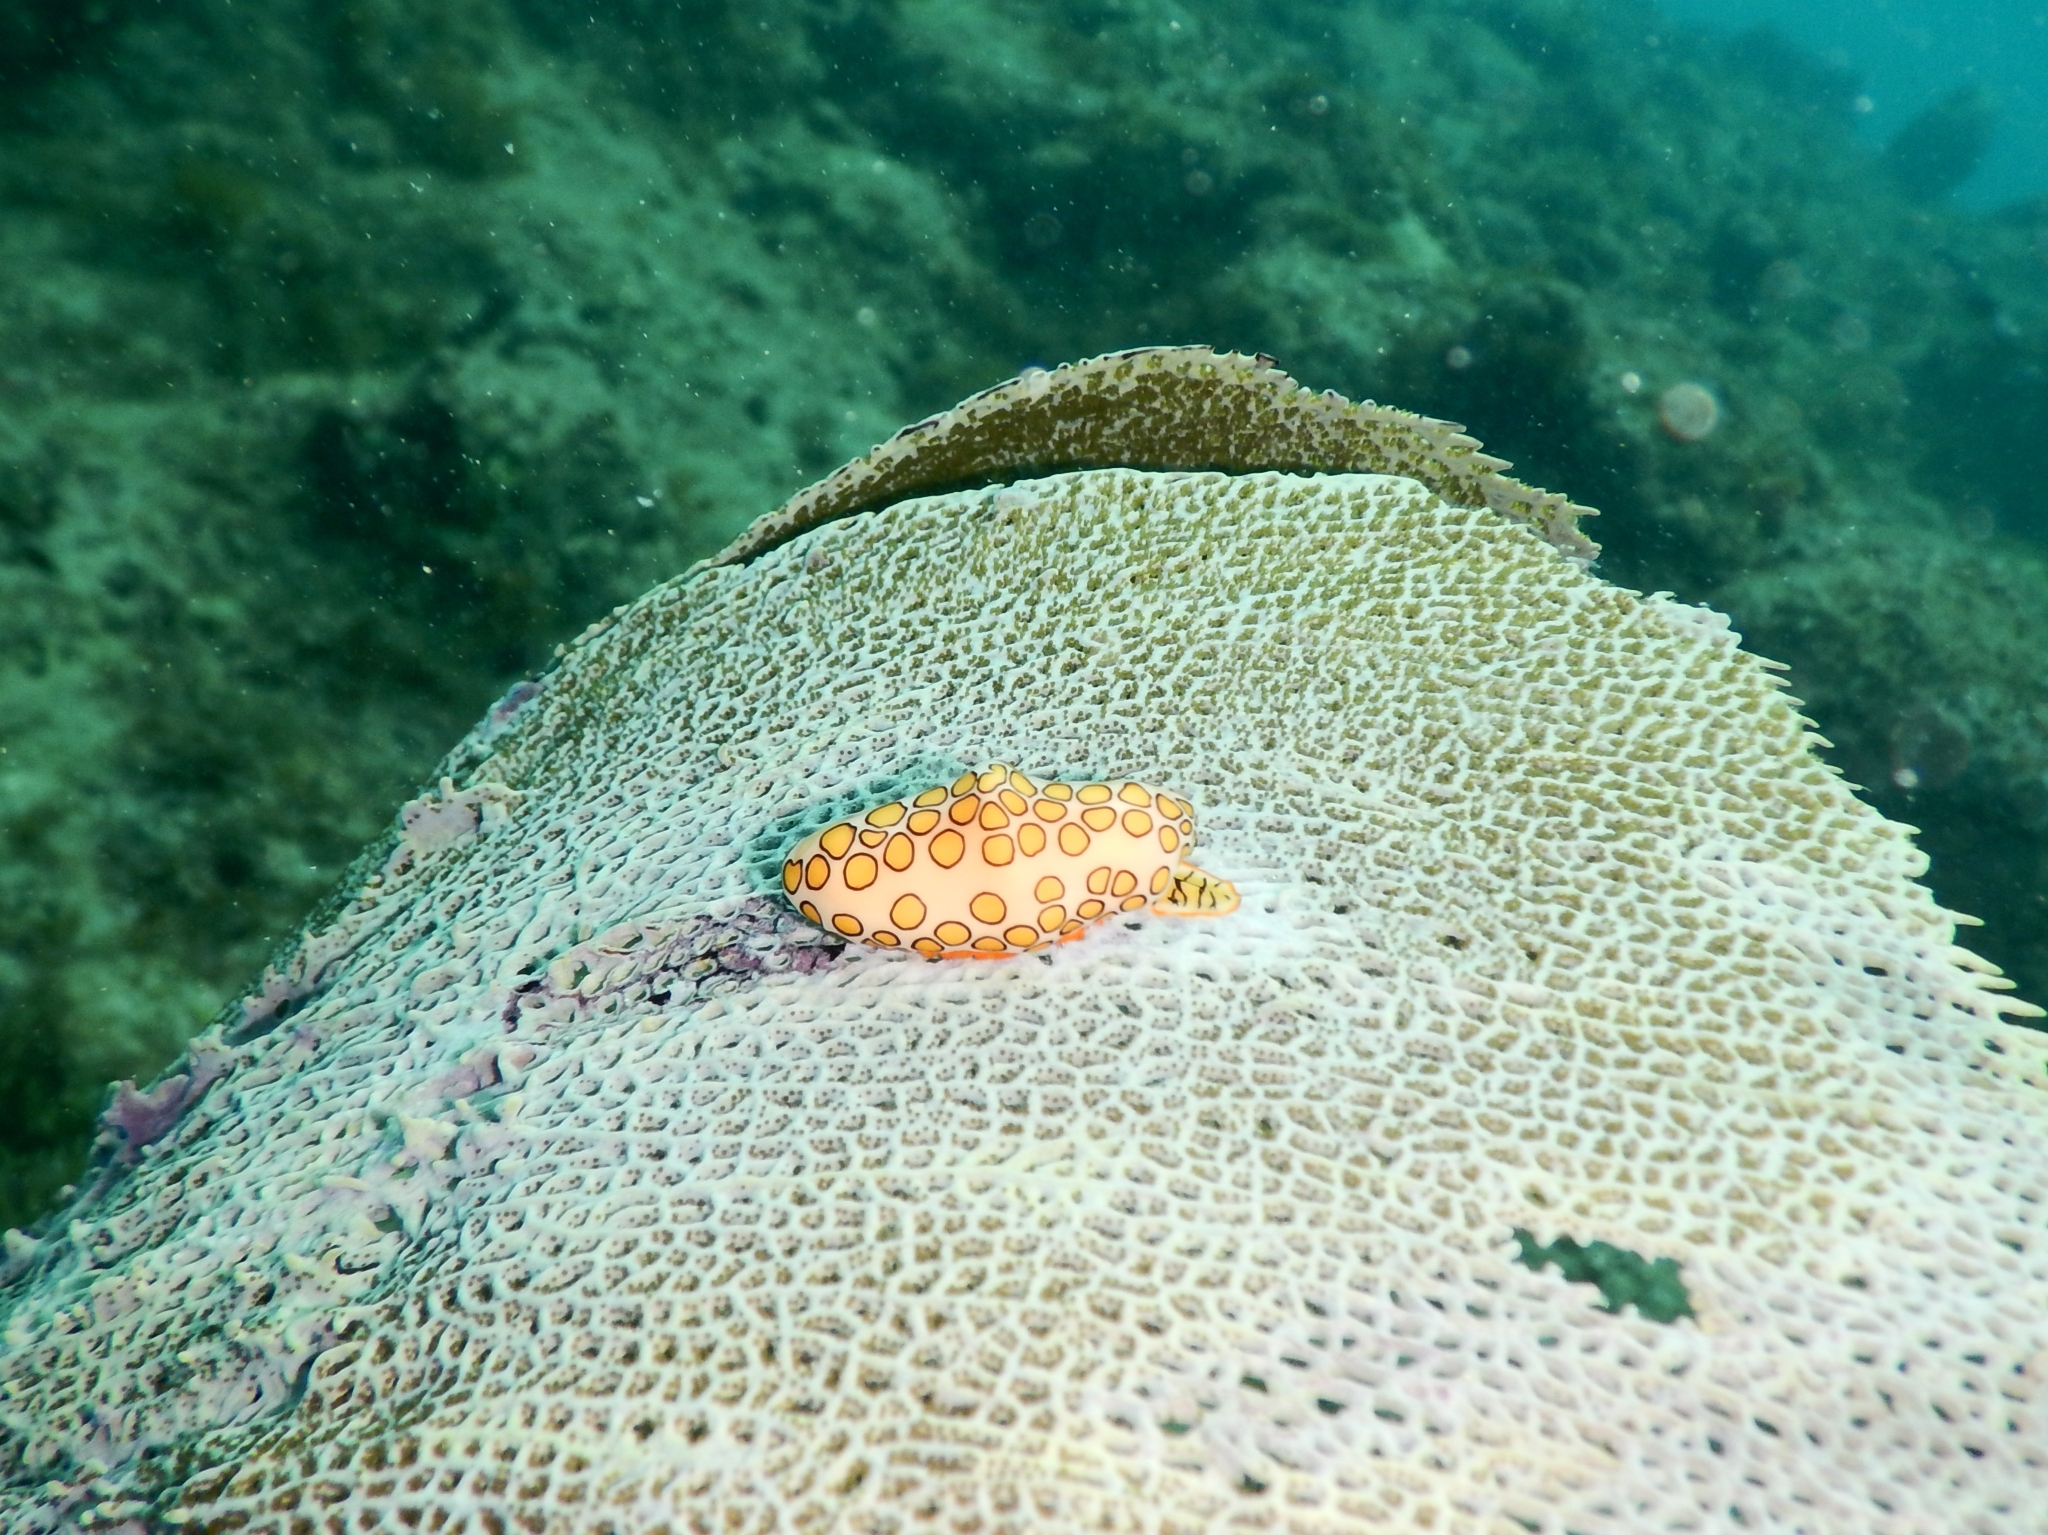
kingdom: Animalia
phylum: Mollusca
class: Gastropoda
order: Littorinimorpha
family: Ovulidae
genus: Cyphoma
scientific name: Cyphoma gibbosum
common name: Flamingo tongue
